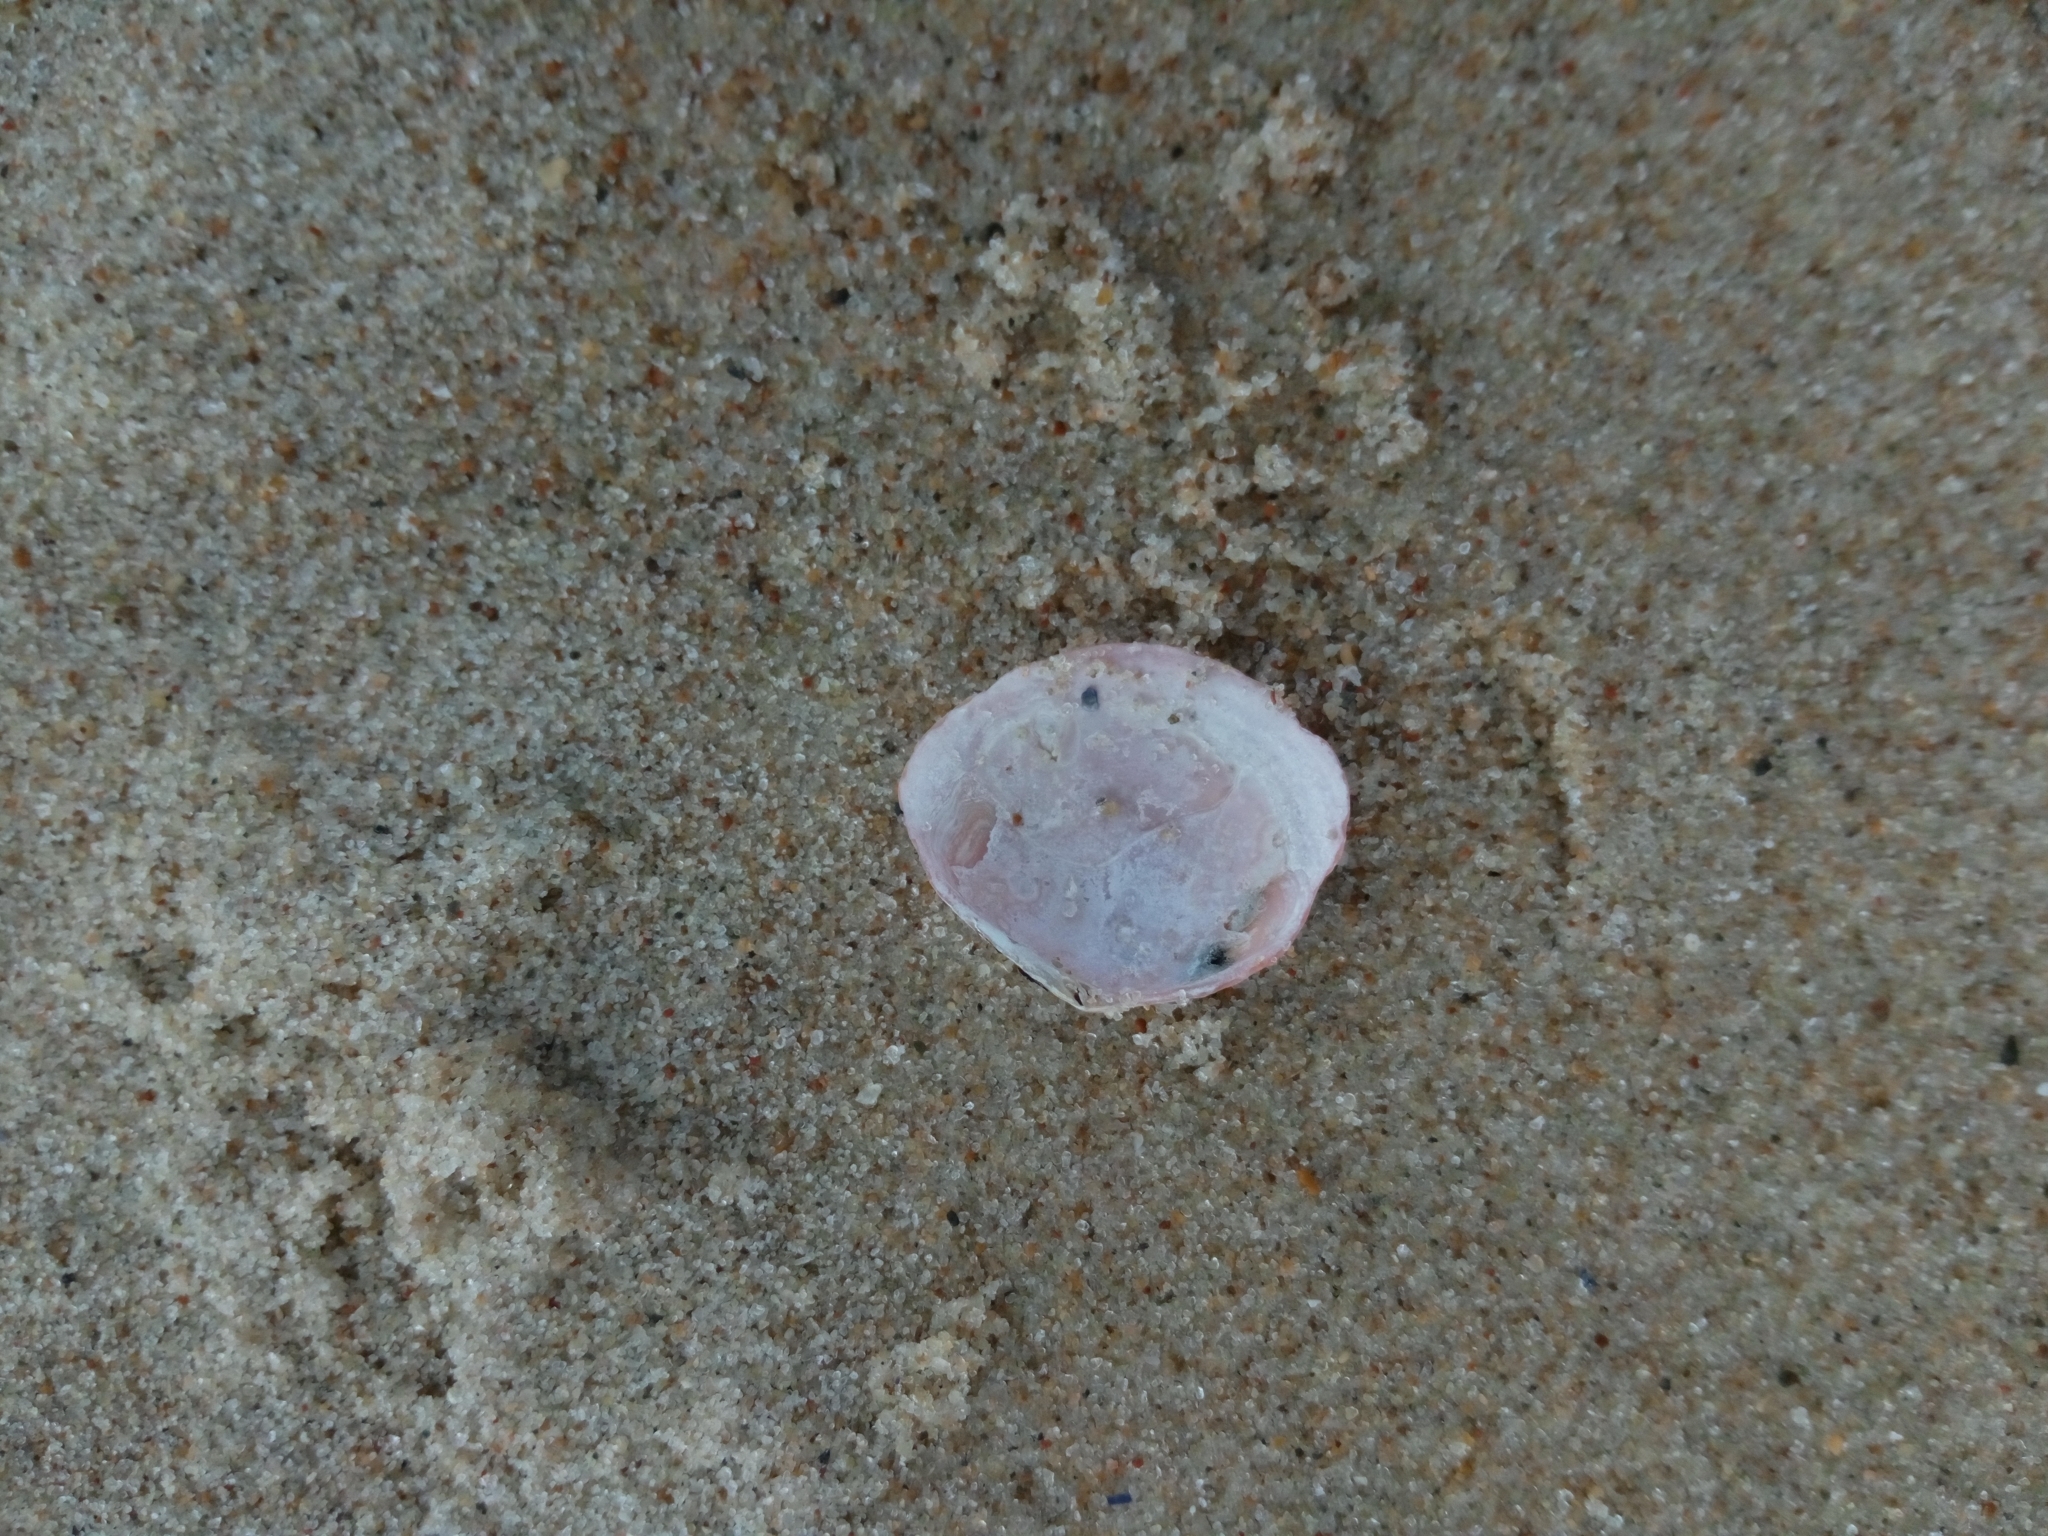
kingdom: Animalia
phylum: Mollusca
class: Bivalvia
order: Cardiida
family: Tellinidae
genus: Macoma
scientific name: Macoma balthica
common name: Baltic tellin
